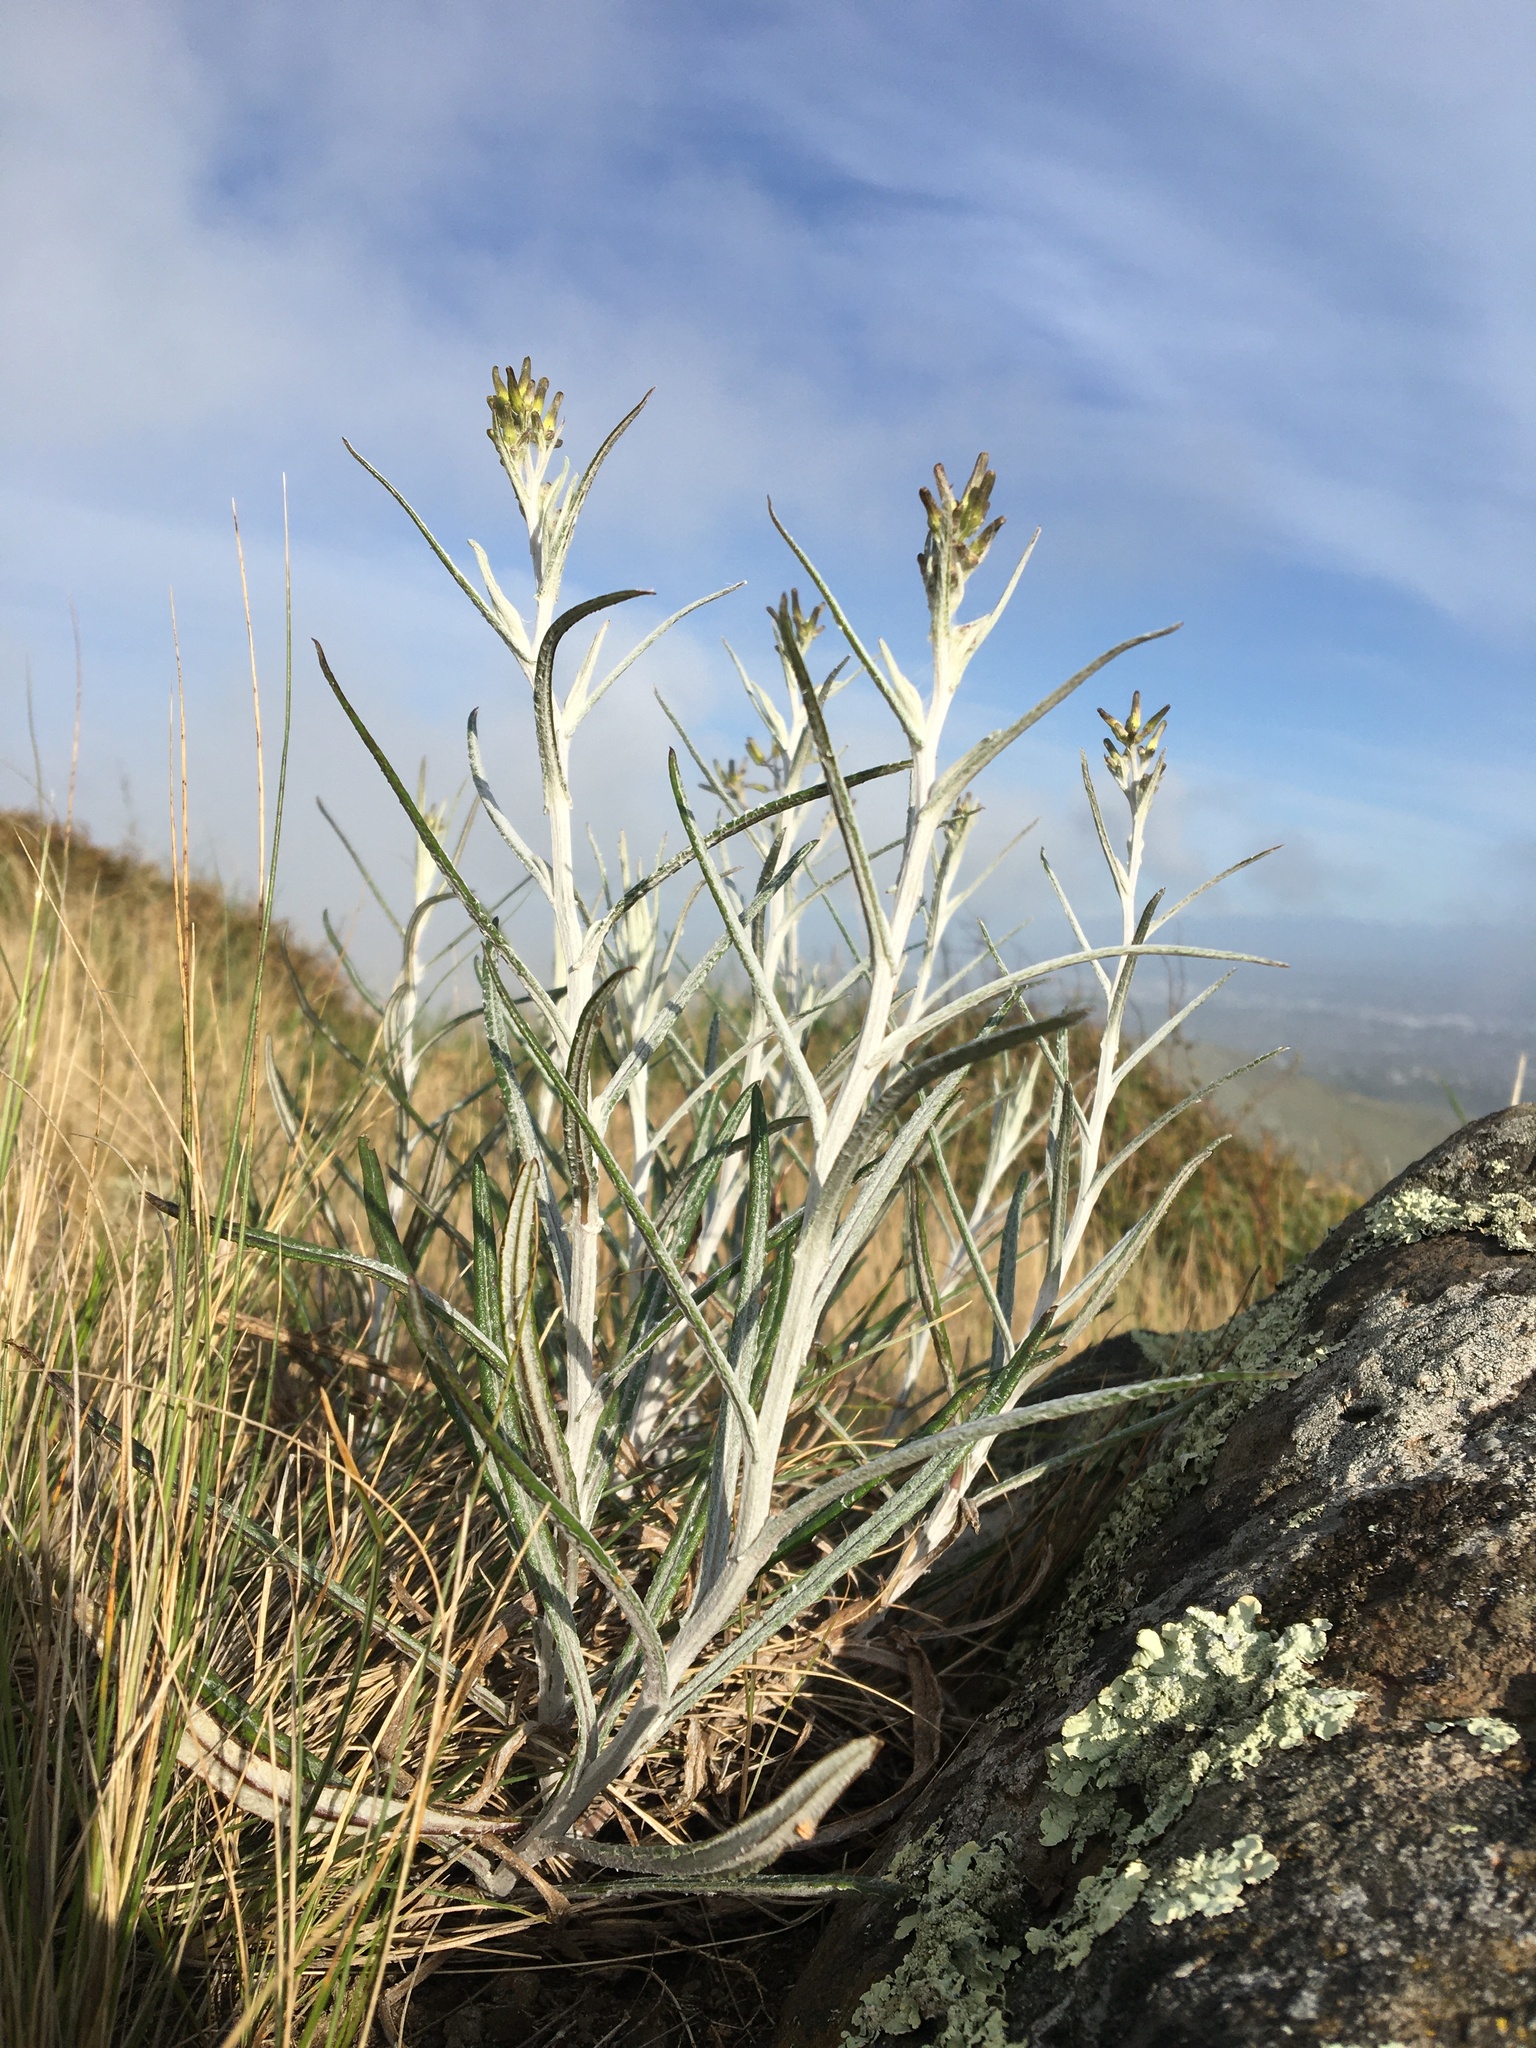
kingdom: Plantae
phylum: Tracheophyta
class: Magnoliopsida
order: Asterales
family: Asteraceae
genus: Senecio
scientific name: Senecio quadridentatus
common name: Cotton fireweed
